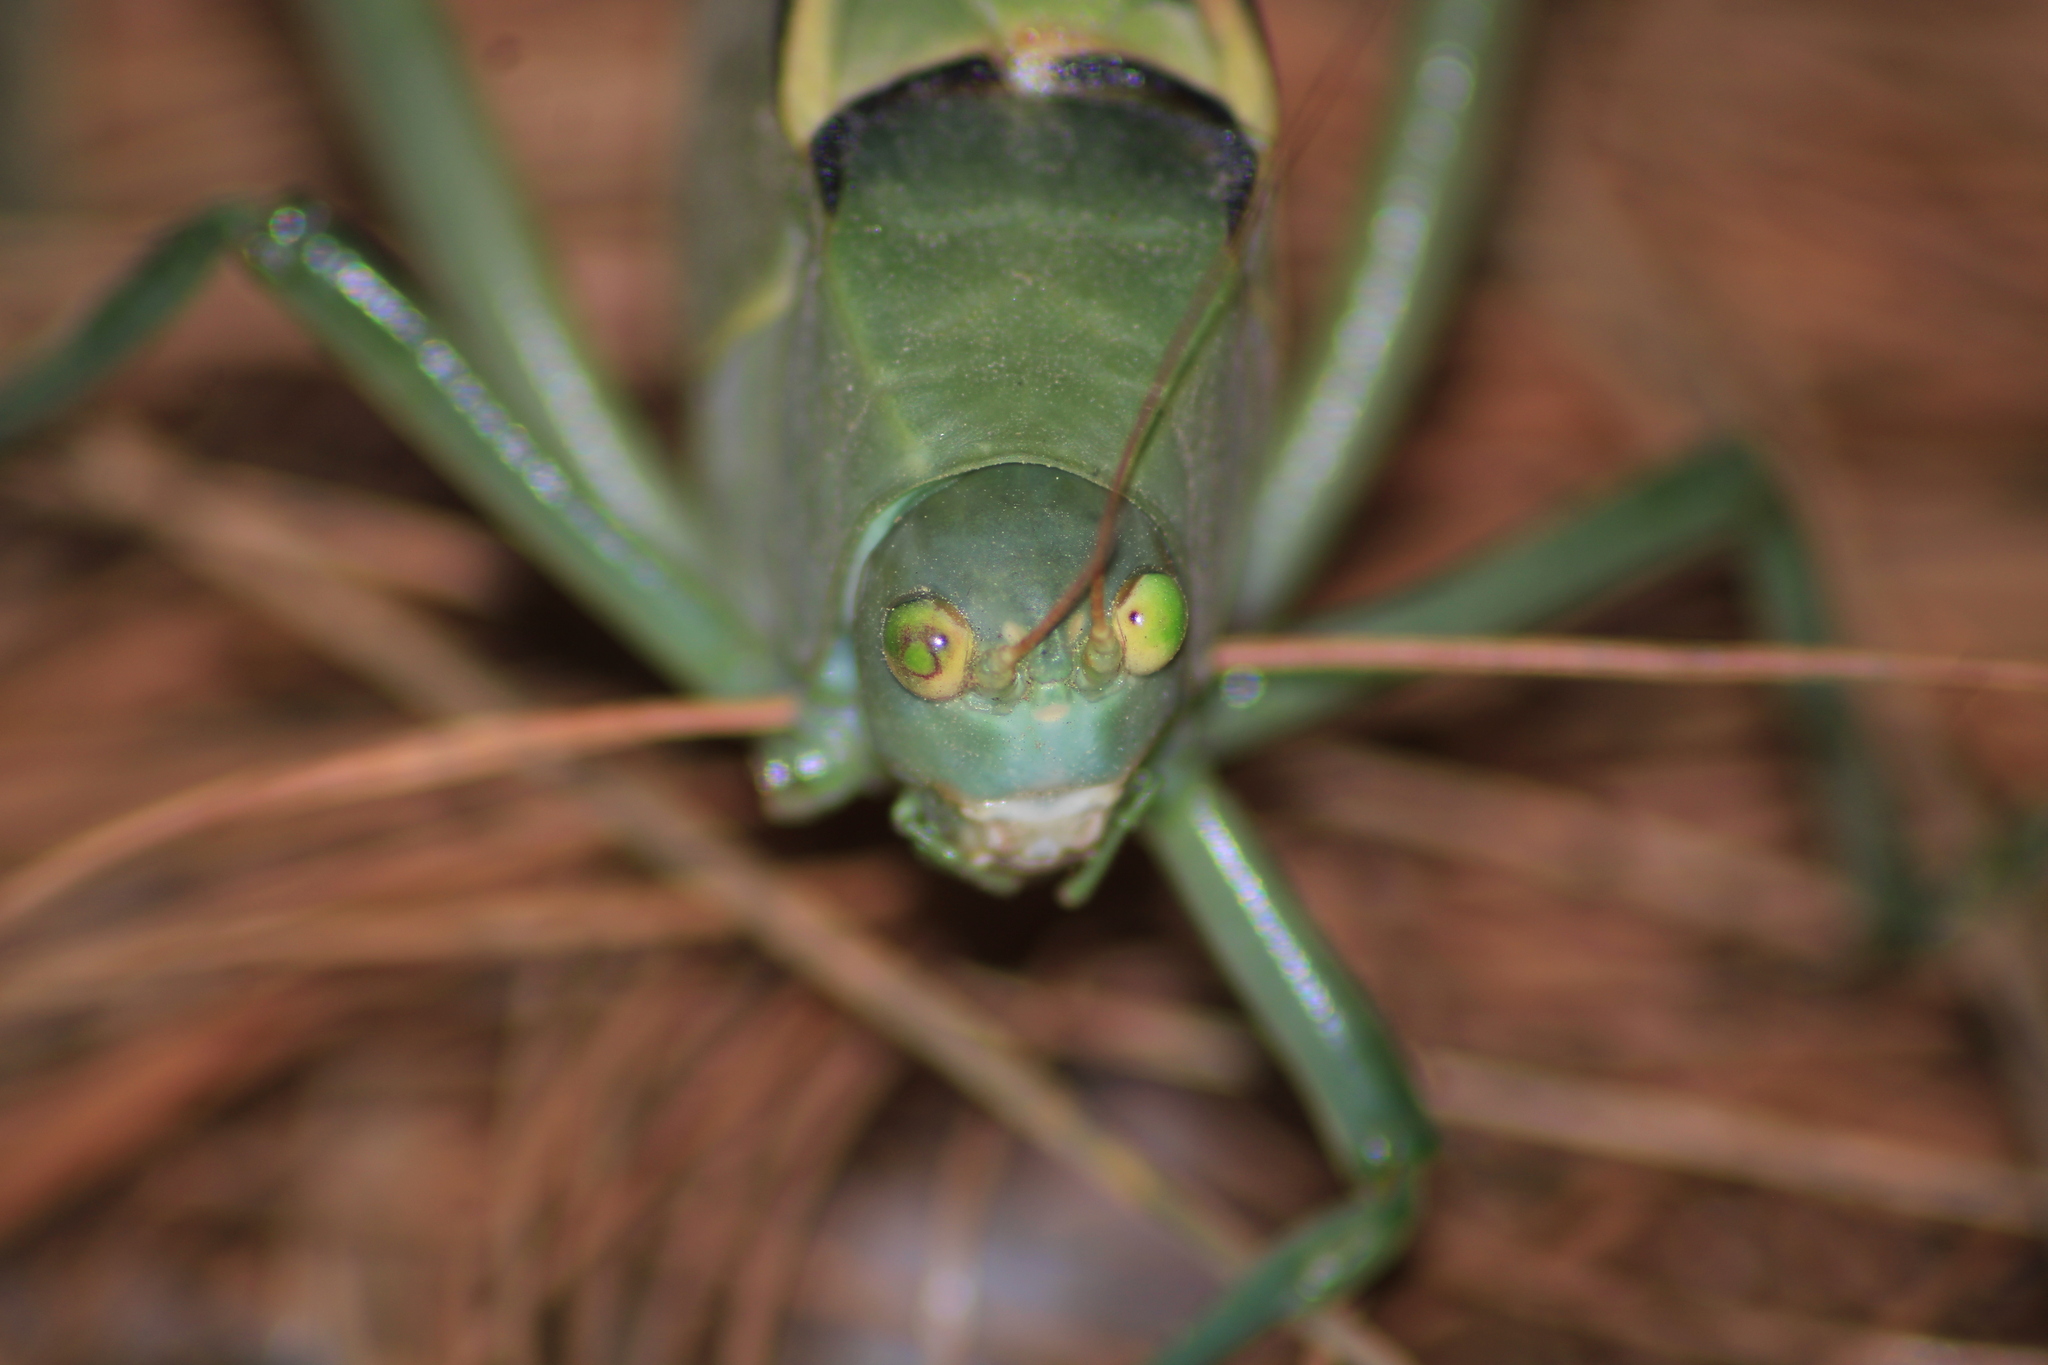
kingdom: Animalia
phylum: Arthropoda
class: Insecta
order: Orthoptera
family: Tettigoniidae
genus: Stilpnochlora
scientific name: Stilpnochlora azteca
